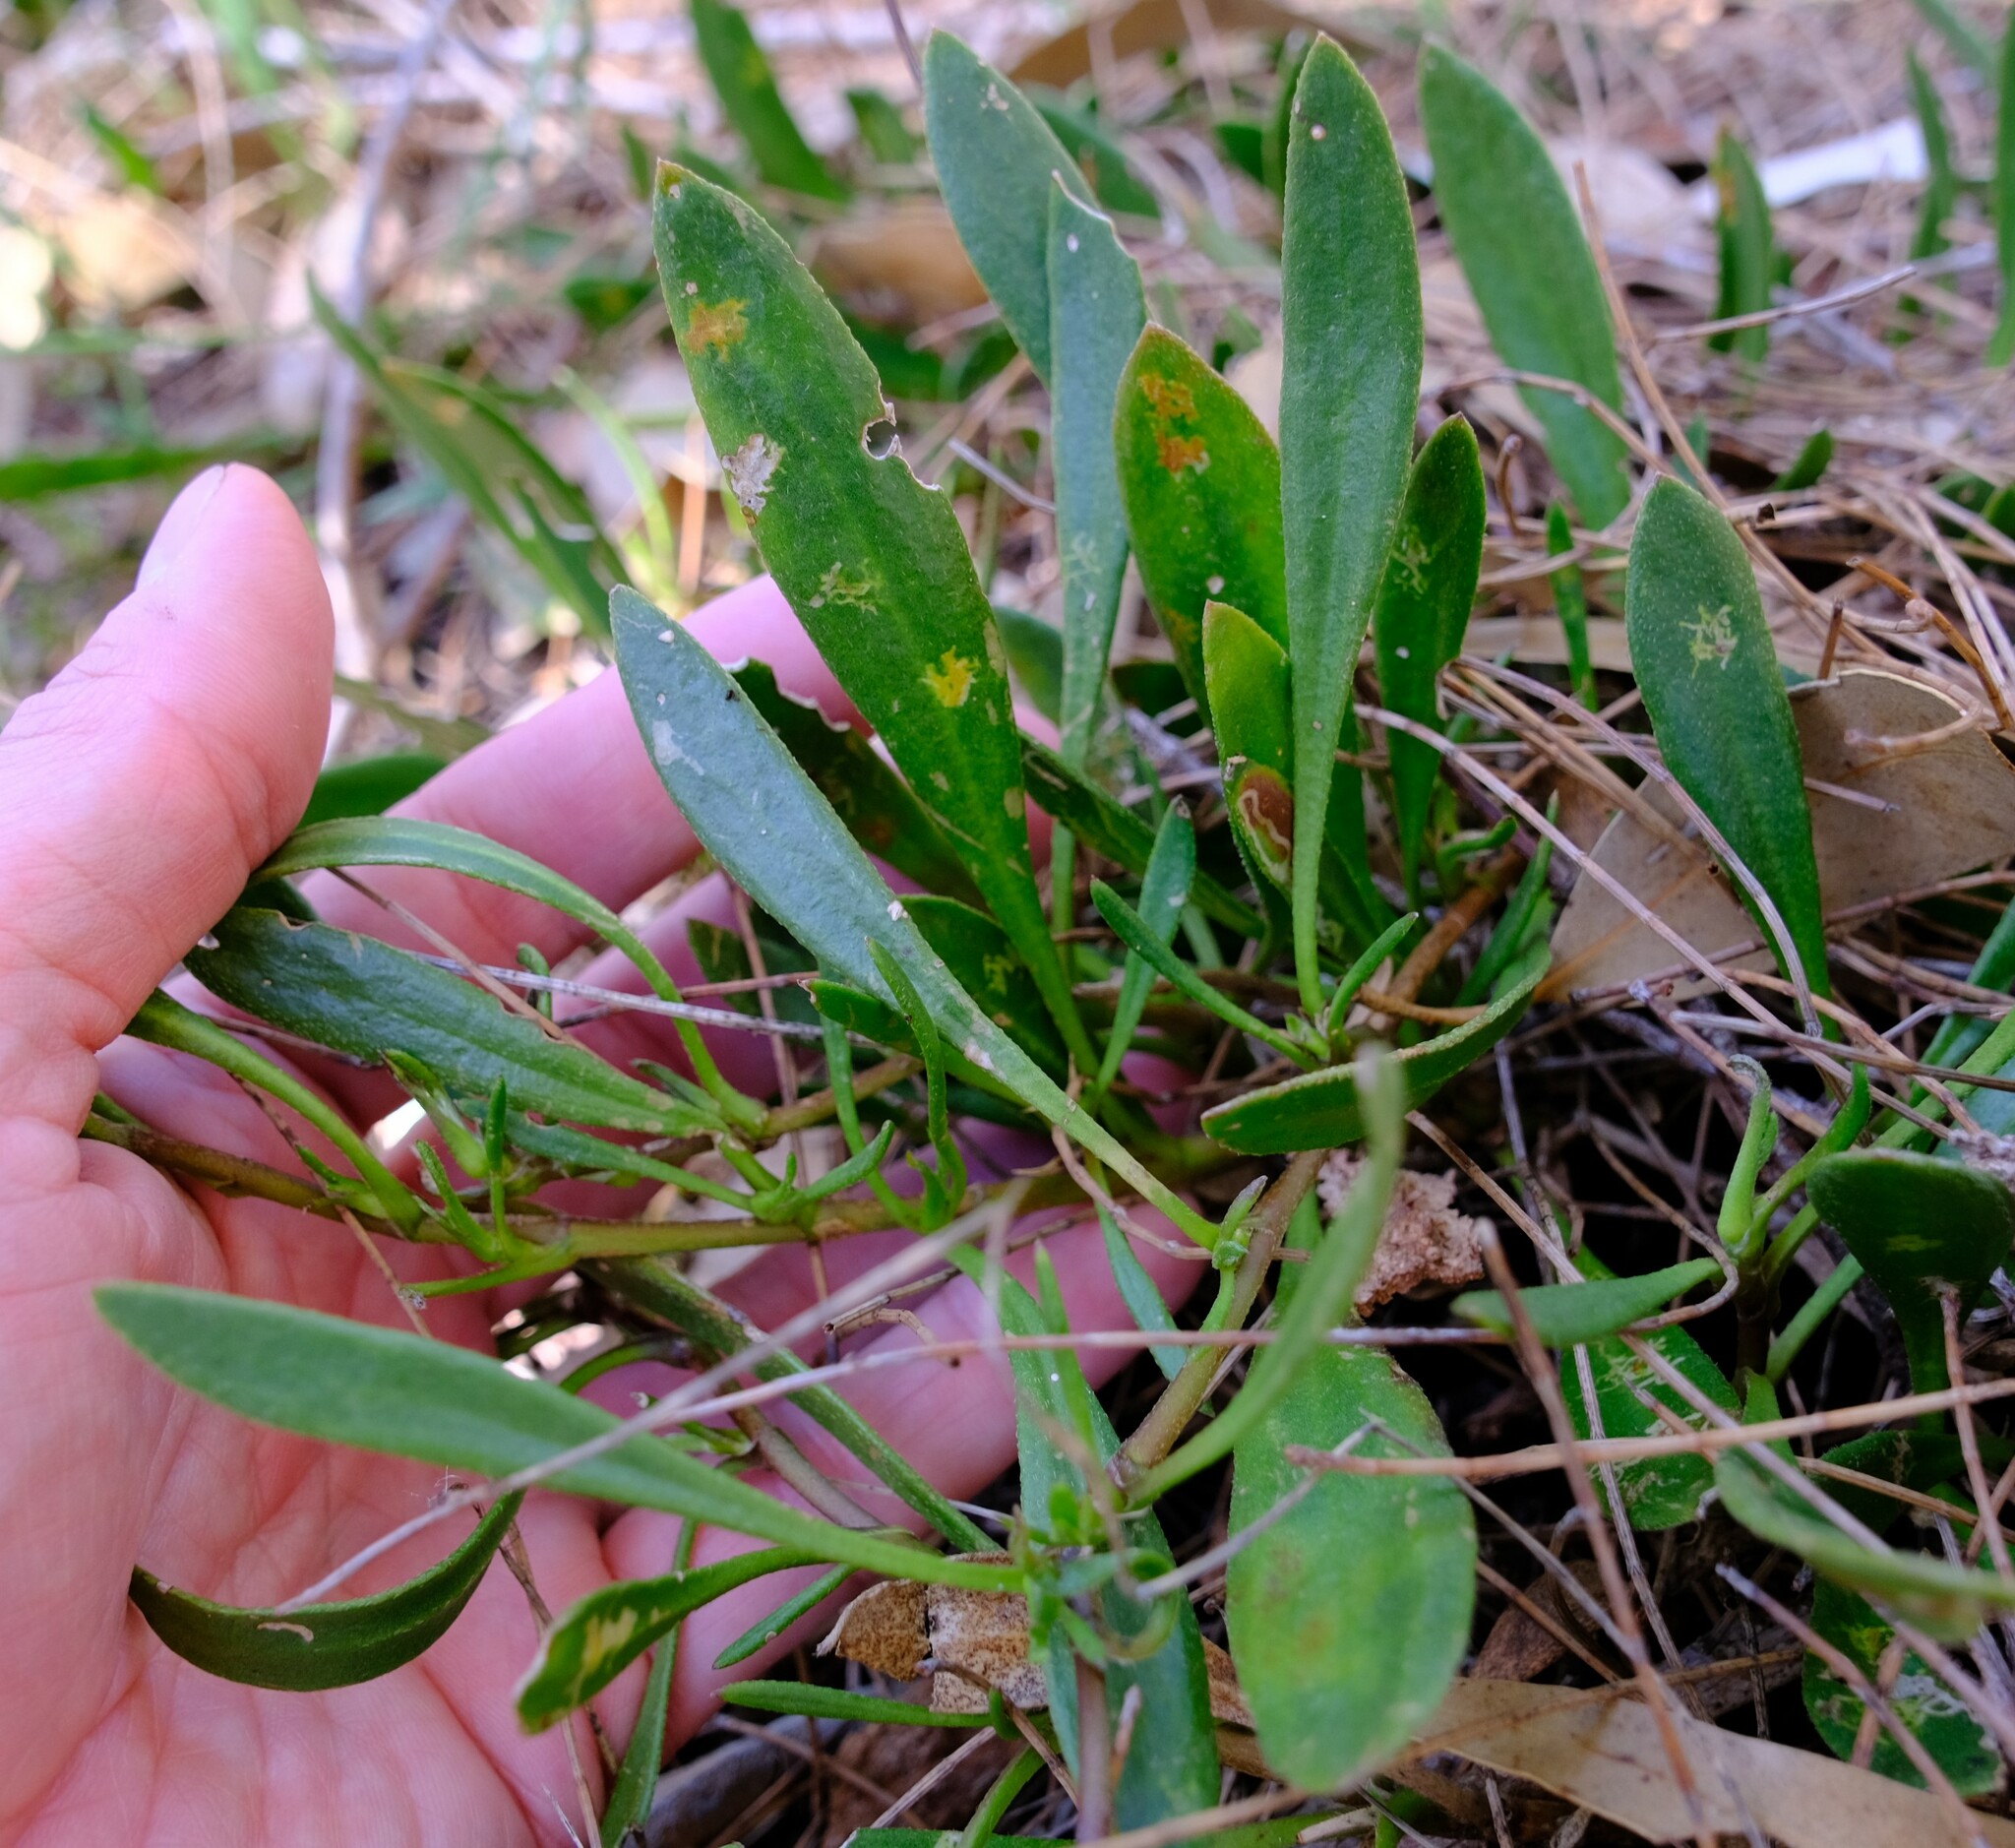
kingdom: Plantae
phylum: Tracheophyta
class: Magnoliopsida
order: Asterales
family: Goodeniaceae
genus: Scaevola
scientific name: Scaevola repens
